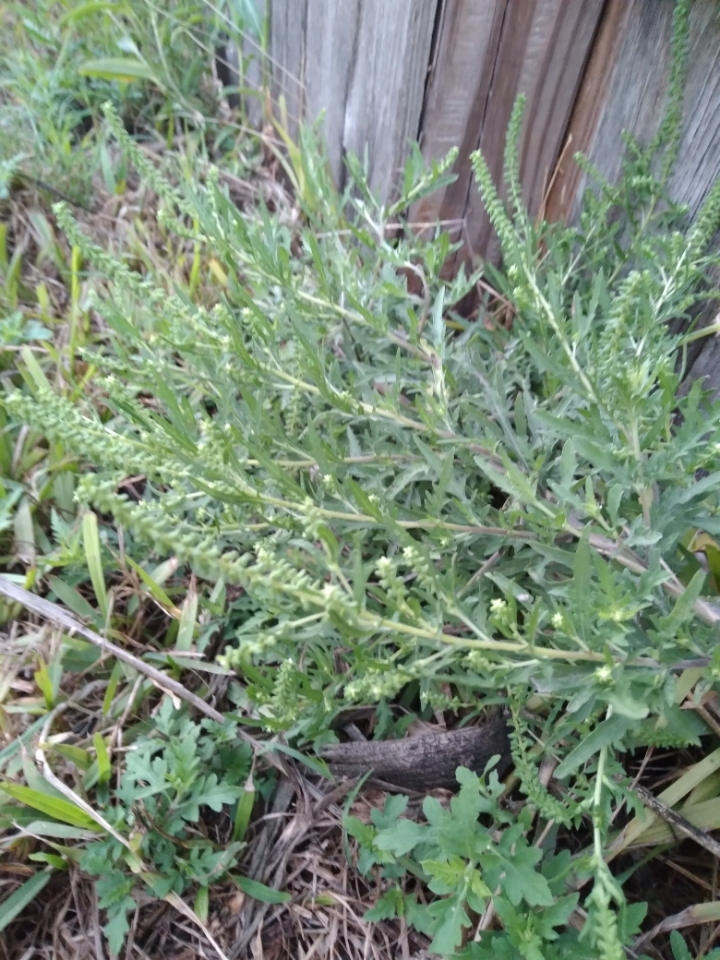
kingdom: Plantae
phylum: Tracheophyta
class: Magnoliopsida
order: Asterales
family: Asteraceae
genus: Ambrosia
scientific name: Ambrosia psilostachya
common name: Perennial ragweed
